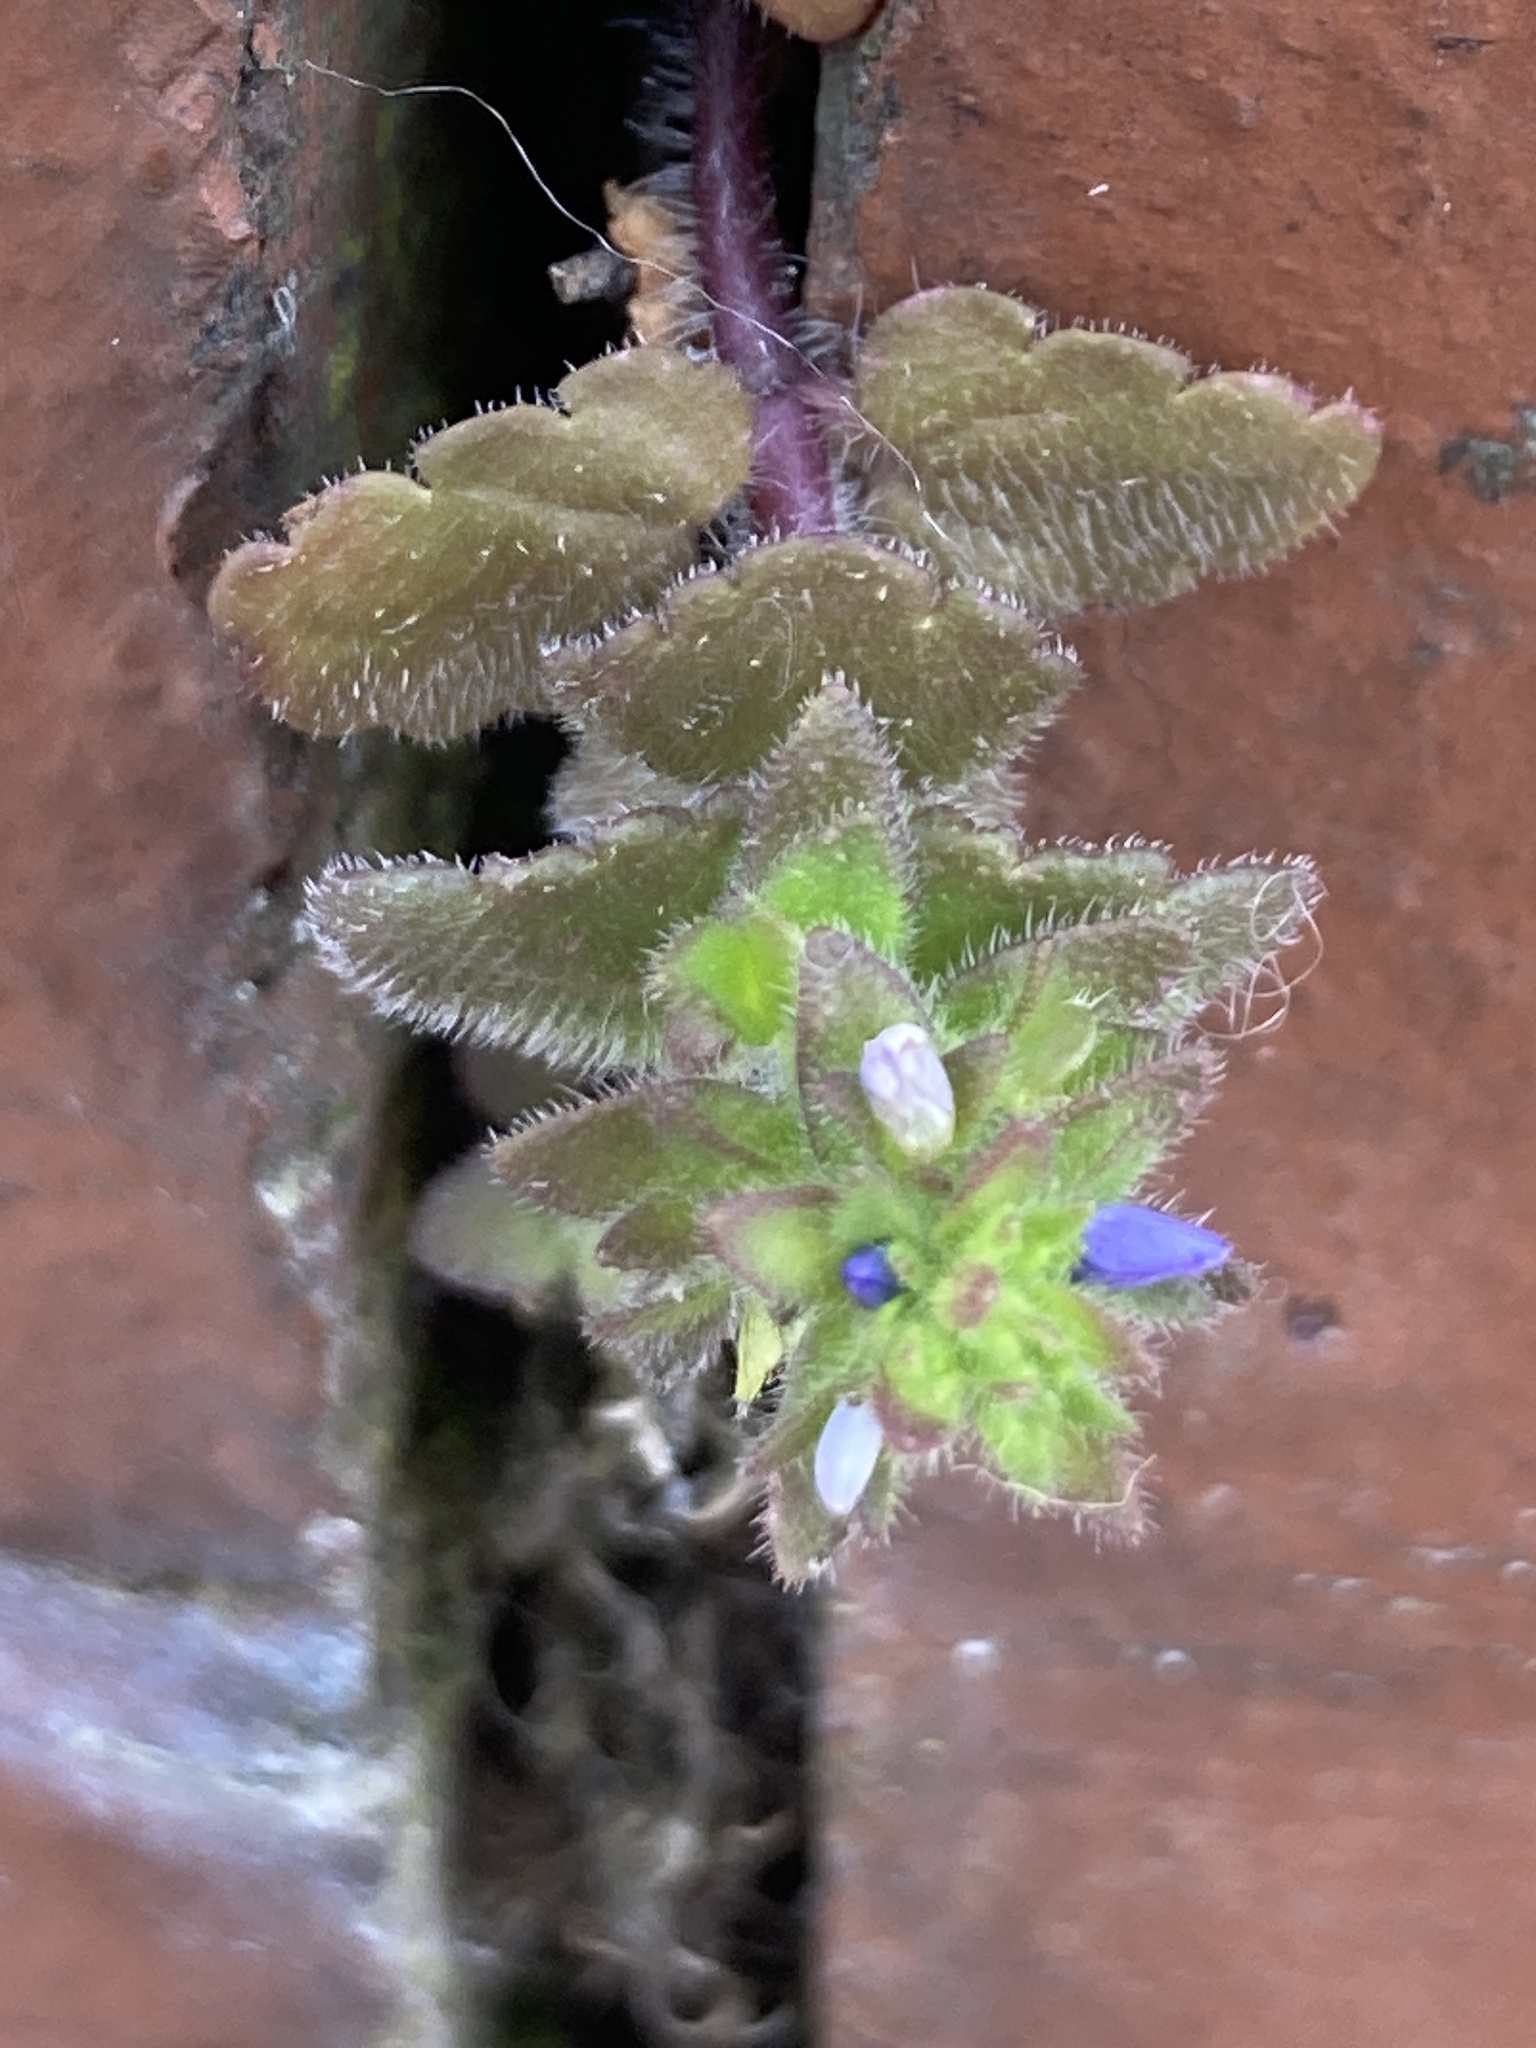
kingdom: Plantae
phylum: Tracheophyta
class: Magnoliopsida
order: Lamiales
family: Plantaginaceae
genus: Veronica
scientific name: Veronica arvensis
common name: Corn speedwell
